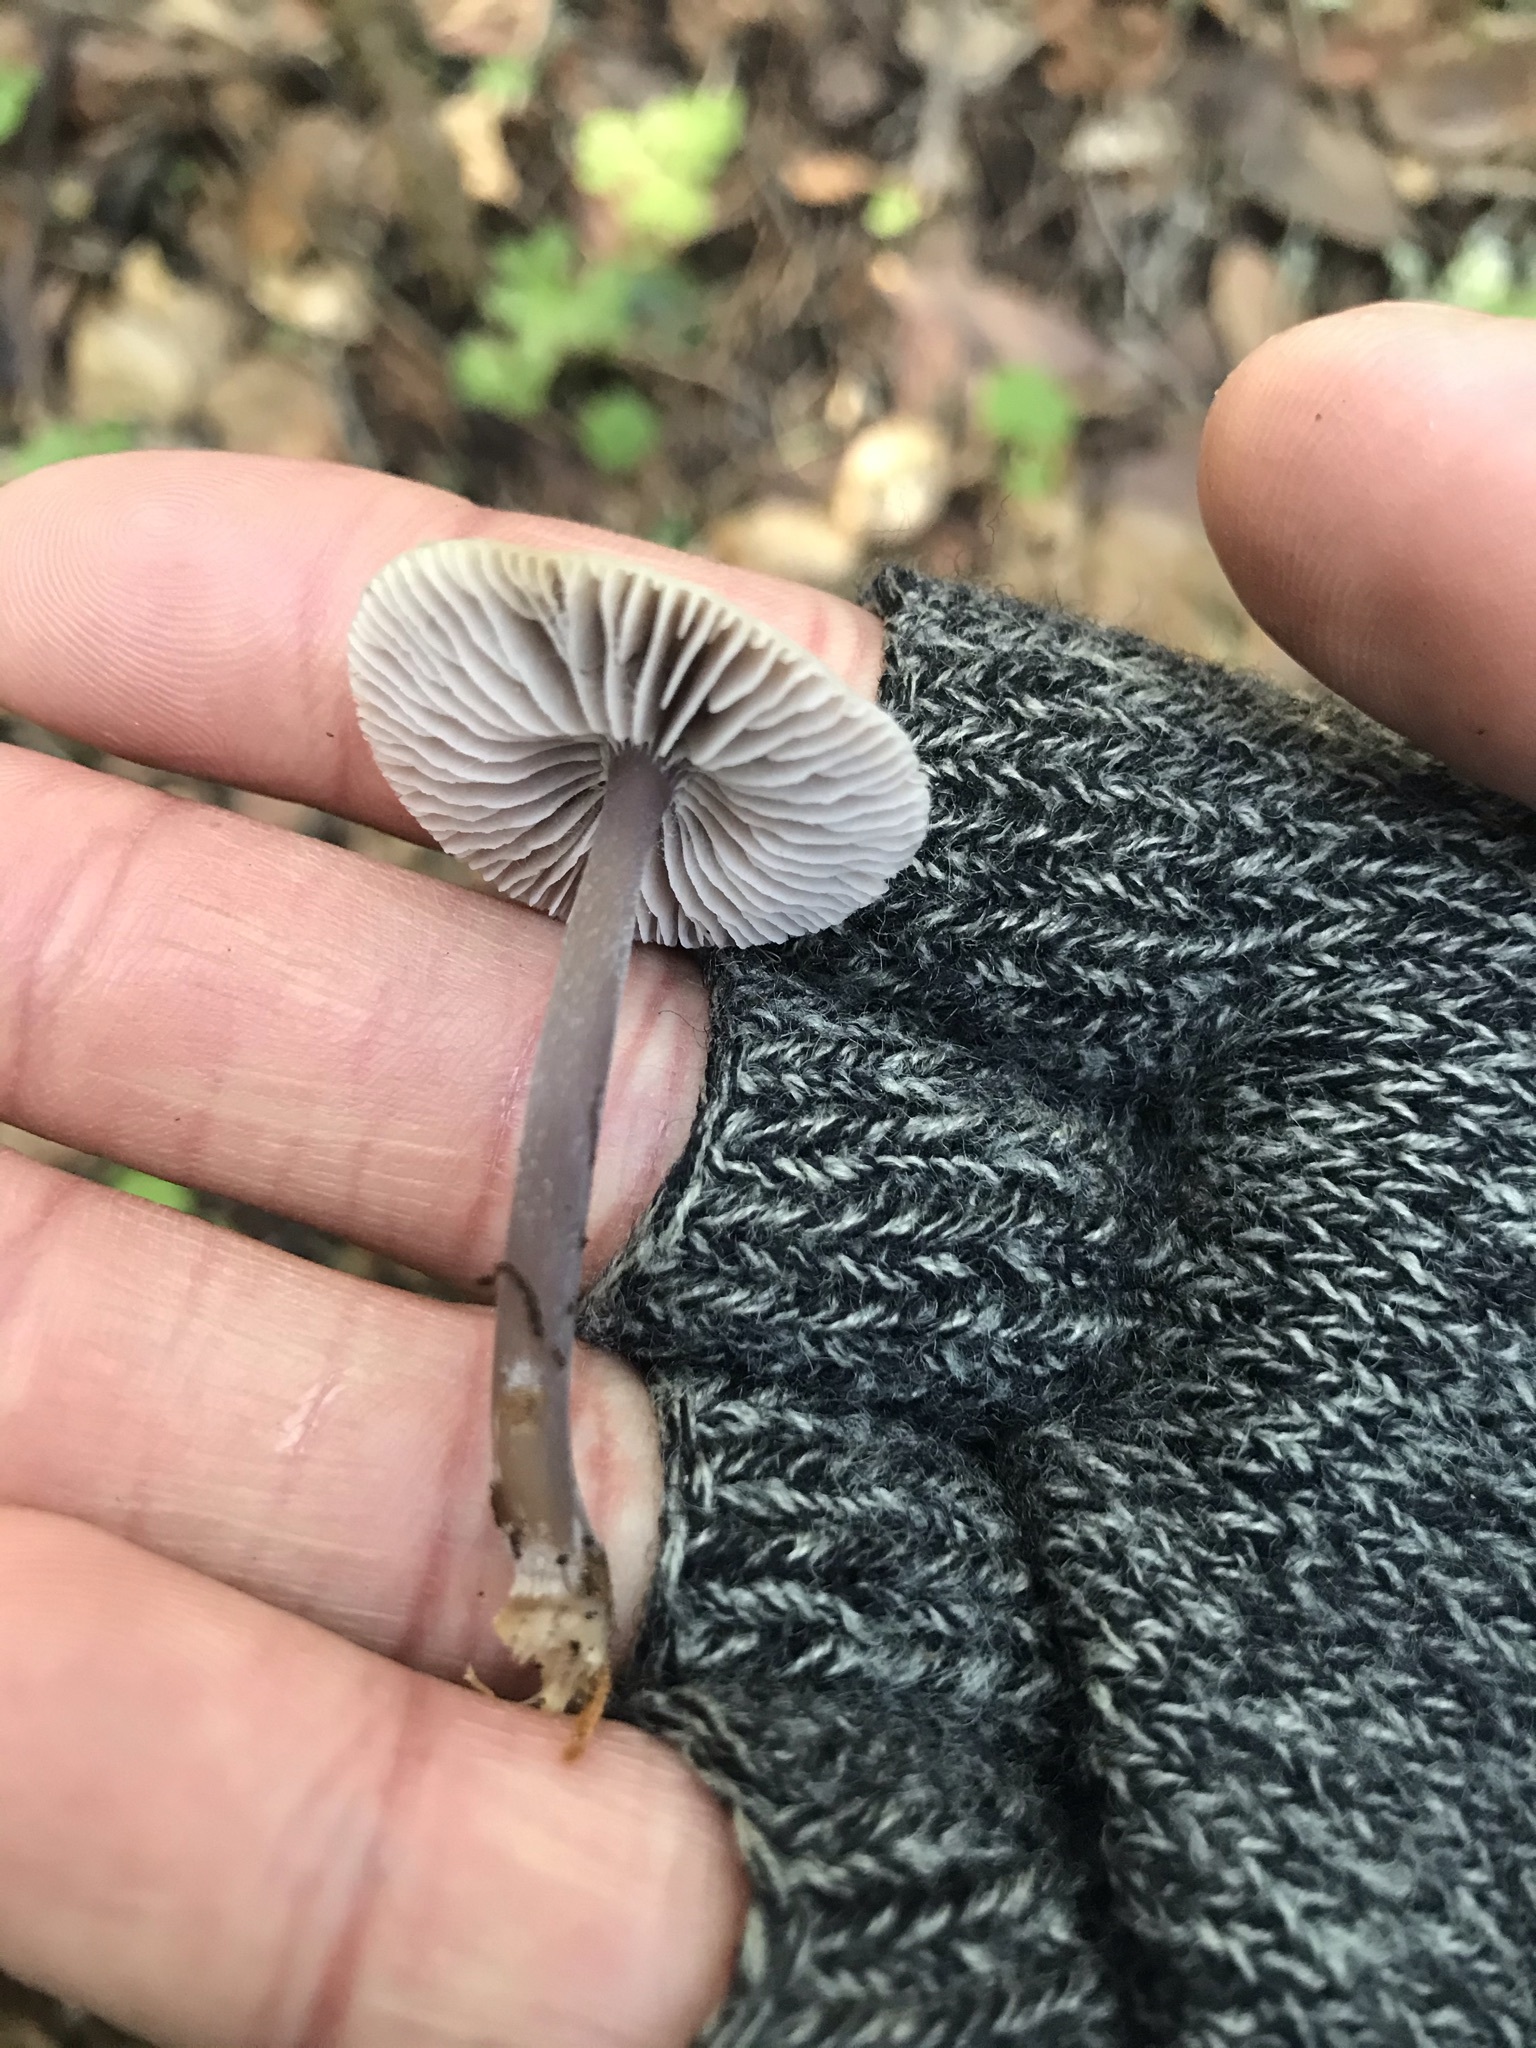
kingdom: Fungi
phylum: Basidiomycota
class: Agaricomycetes
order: Agaricales
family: Mycenaceae
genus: Mycena
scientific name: Mycena pura
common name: Lilac bonnet
